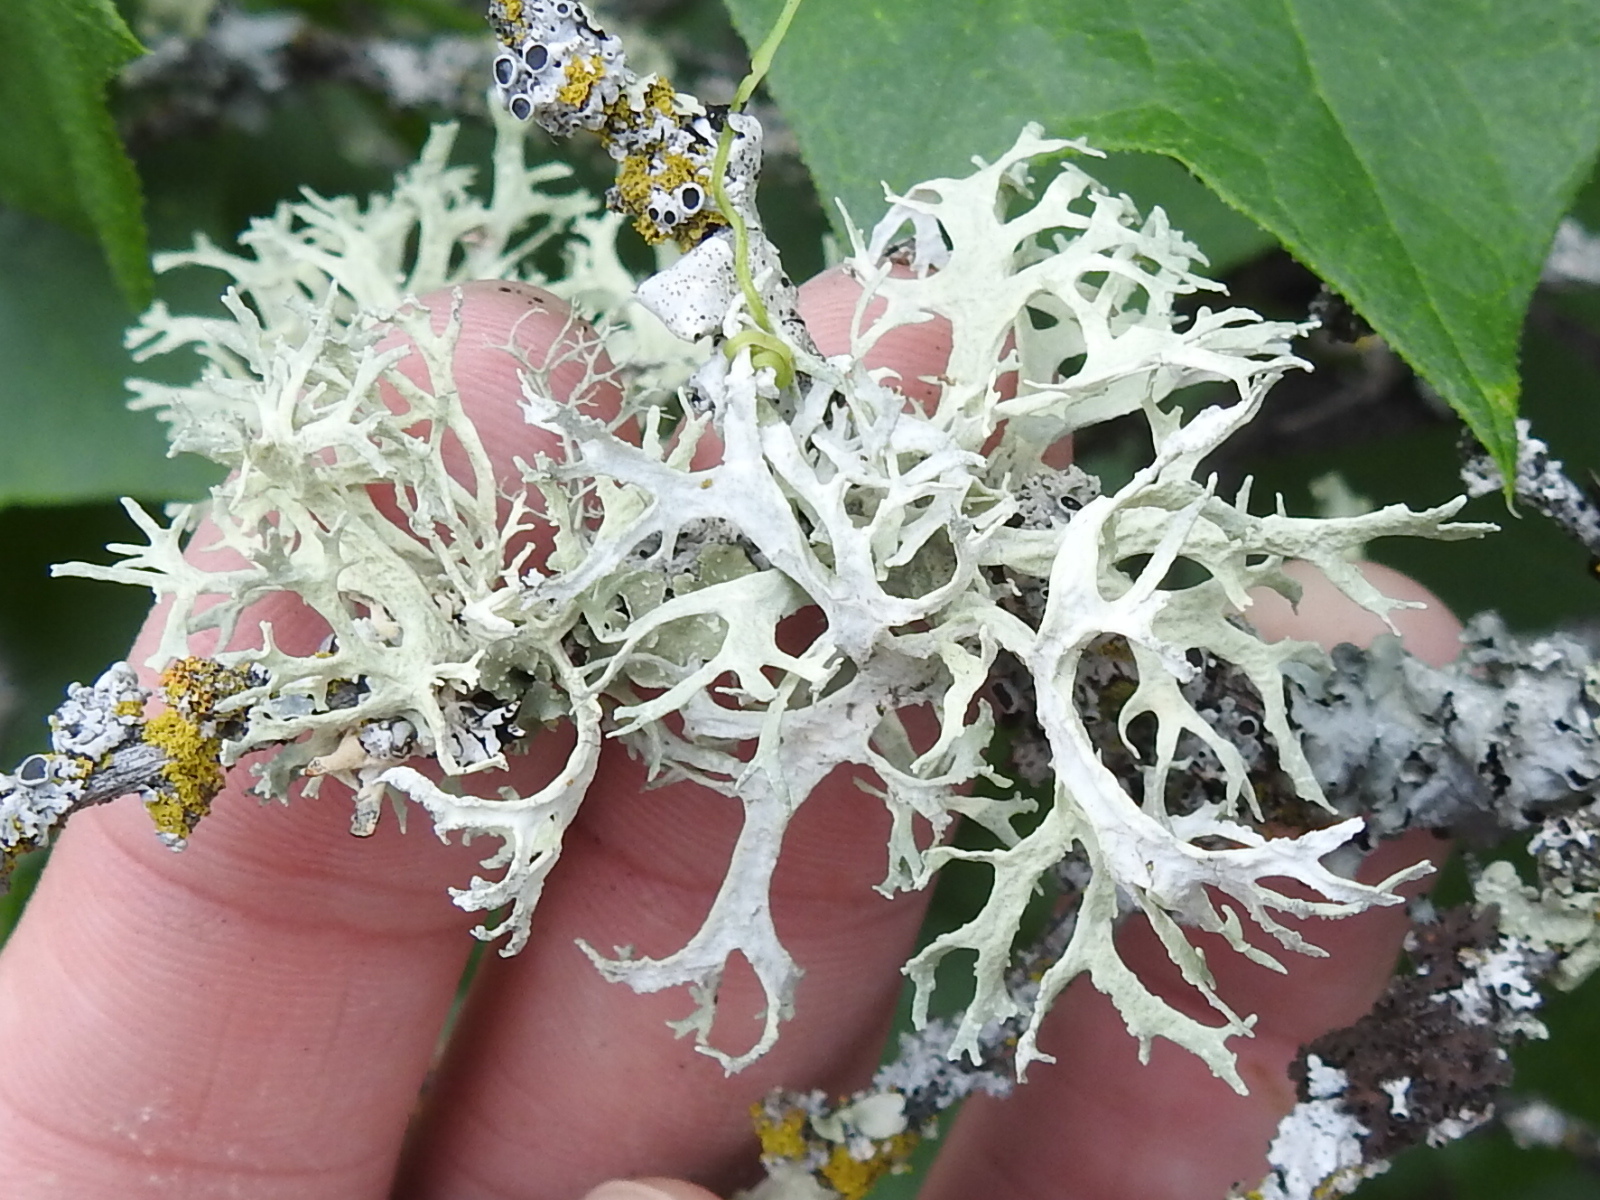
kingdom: Fungi
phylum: Ascomycota
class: Lecanoromycetes
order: Lecanorales
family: Parmeliaceae
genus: Evernia
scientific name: Evernia prunastri
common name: Oak moss
